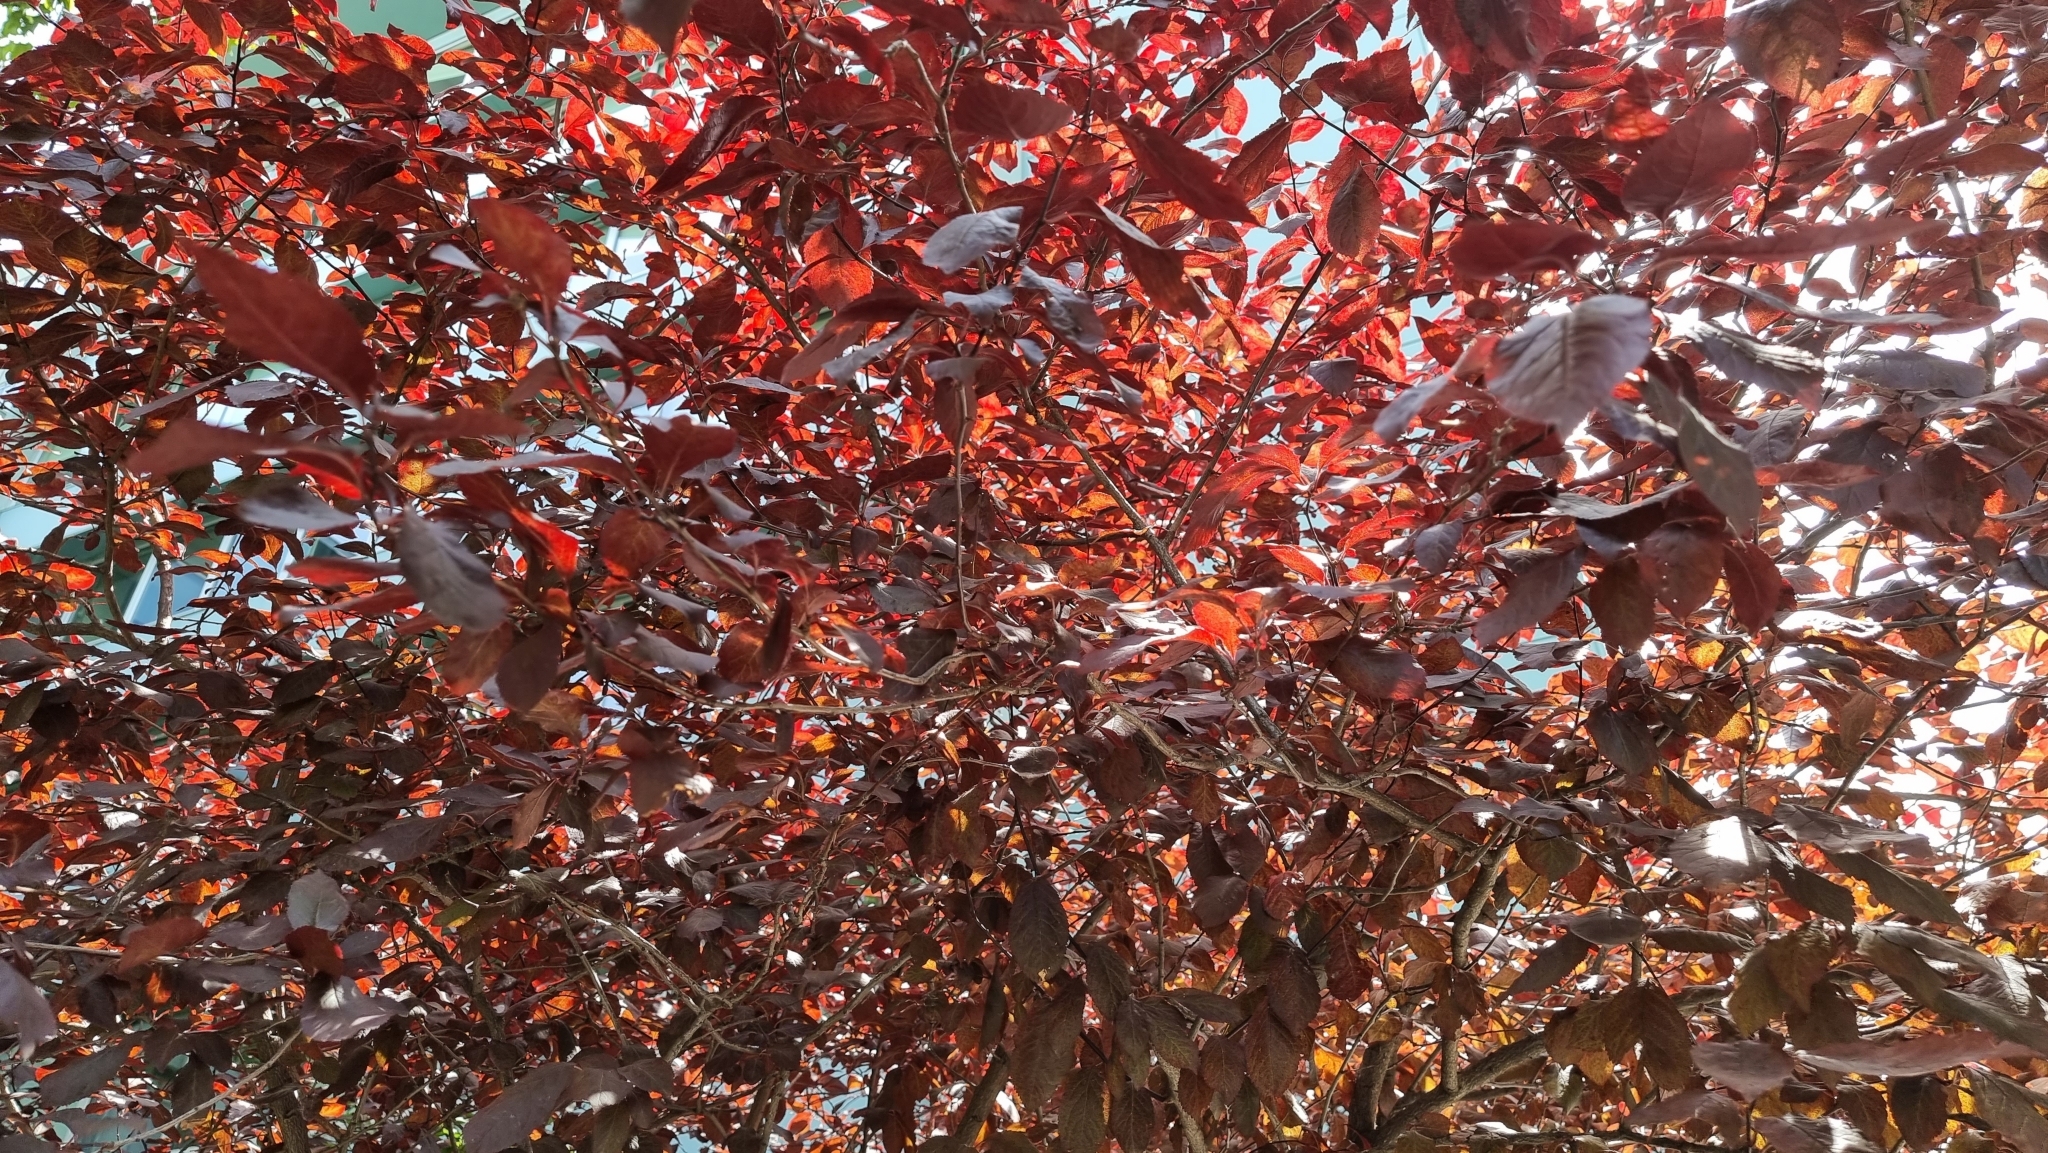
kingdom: Plantae
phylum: Tracheophyta
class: Magnoliopsida
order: Fagales
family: Fagaceae
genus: Fagus
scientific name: Fagus sylvatica
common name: Beech
